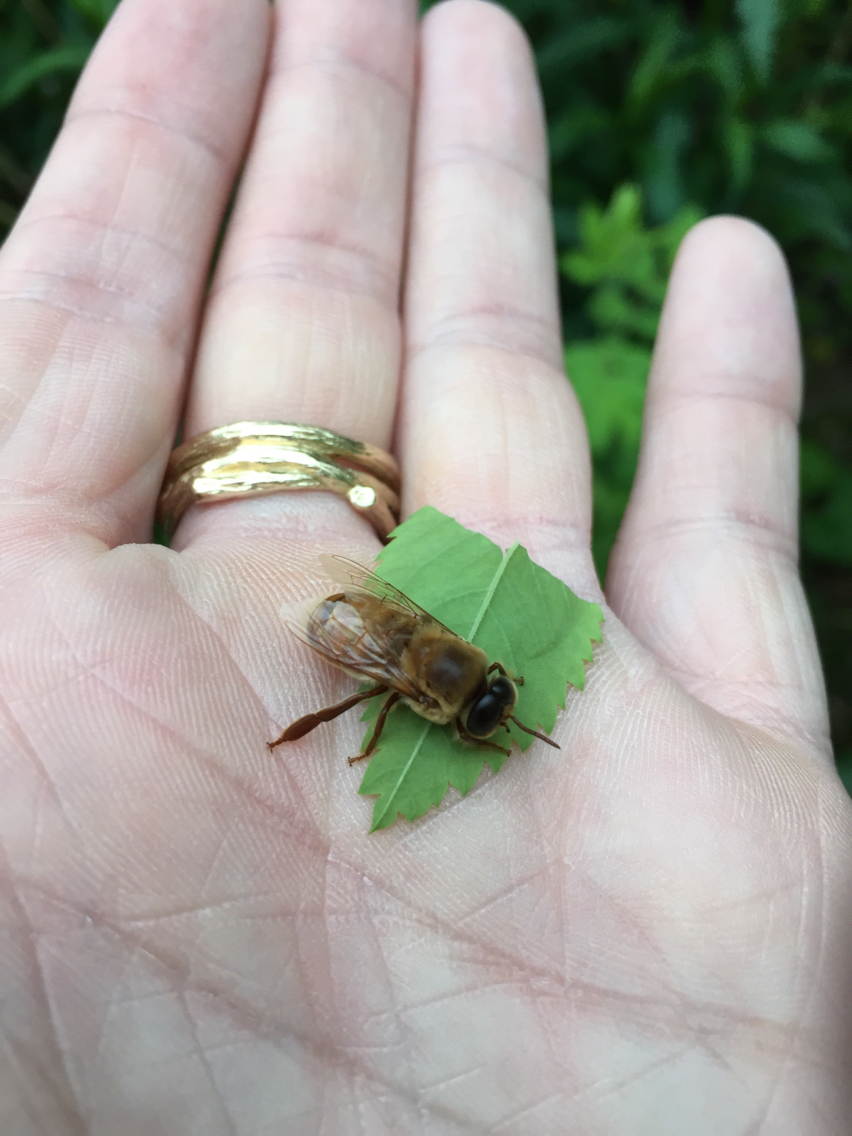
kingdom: Animalia
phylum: Arthropoda
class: Insecta
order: Hymenoptera
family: Apidae
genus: Apis
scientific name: Apis mellifera
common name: Honey bee
